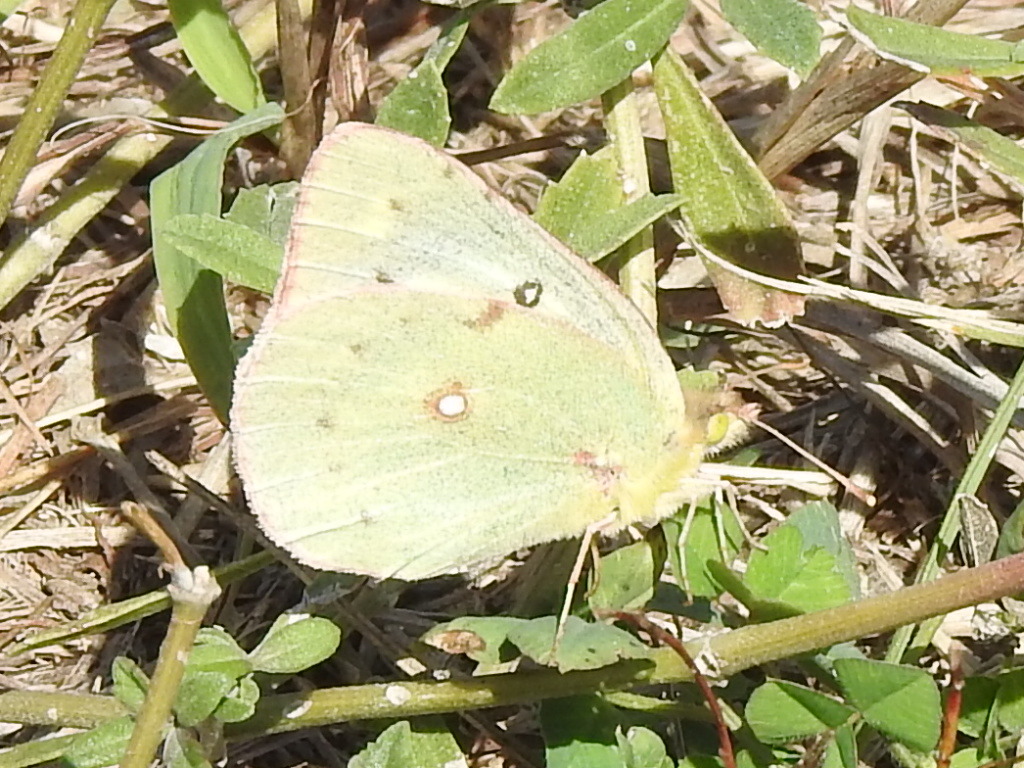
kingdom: Animalia
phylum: Arthropoda
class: Insecta
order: Lepidoptera
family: Pieridae
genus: Colias
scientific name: Colias eurytheme
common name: Alfalfa butterfly
